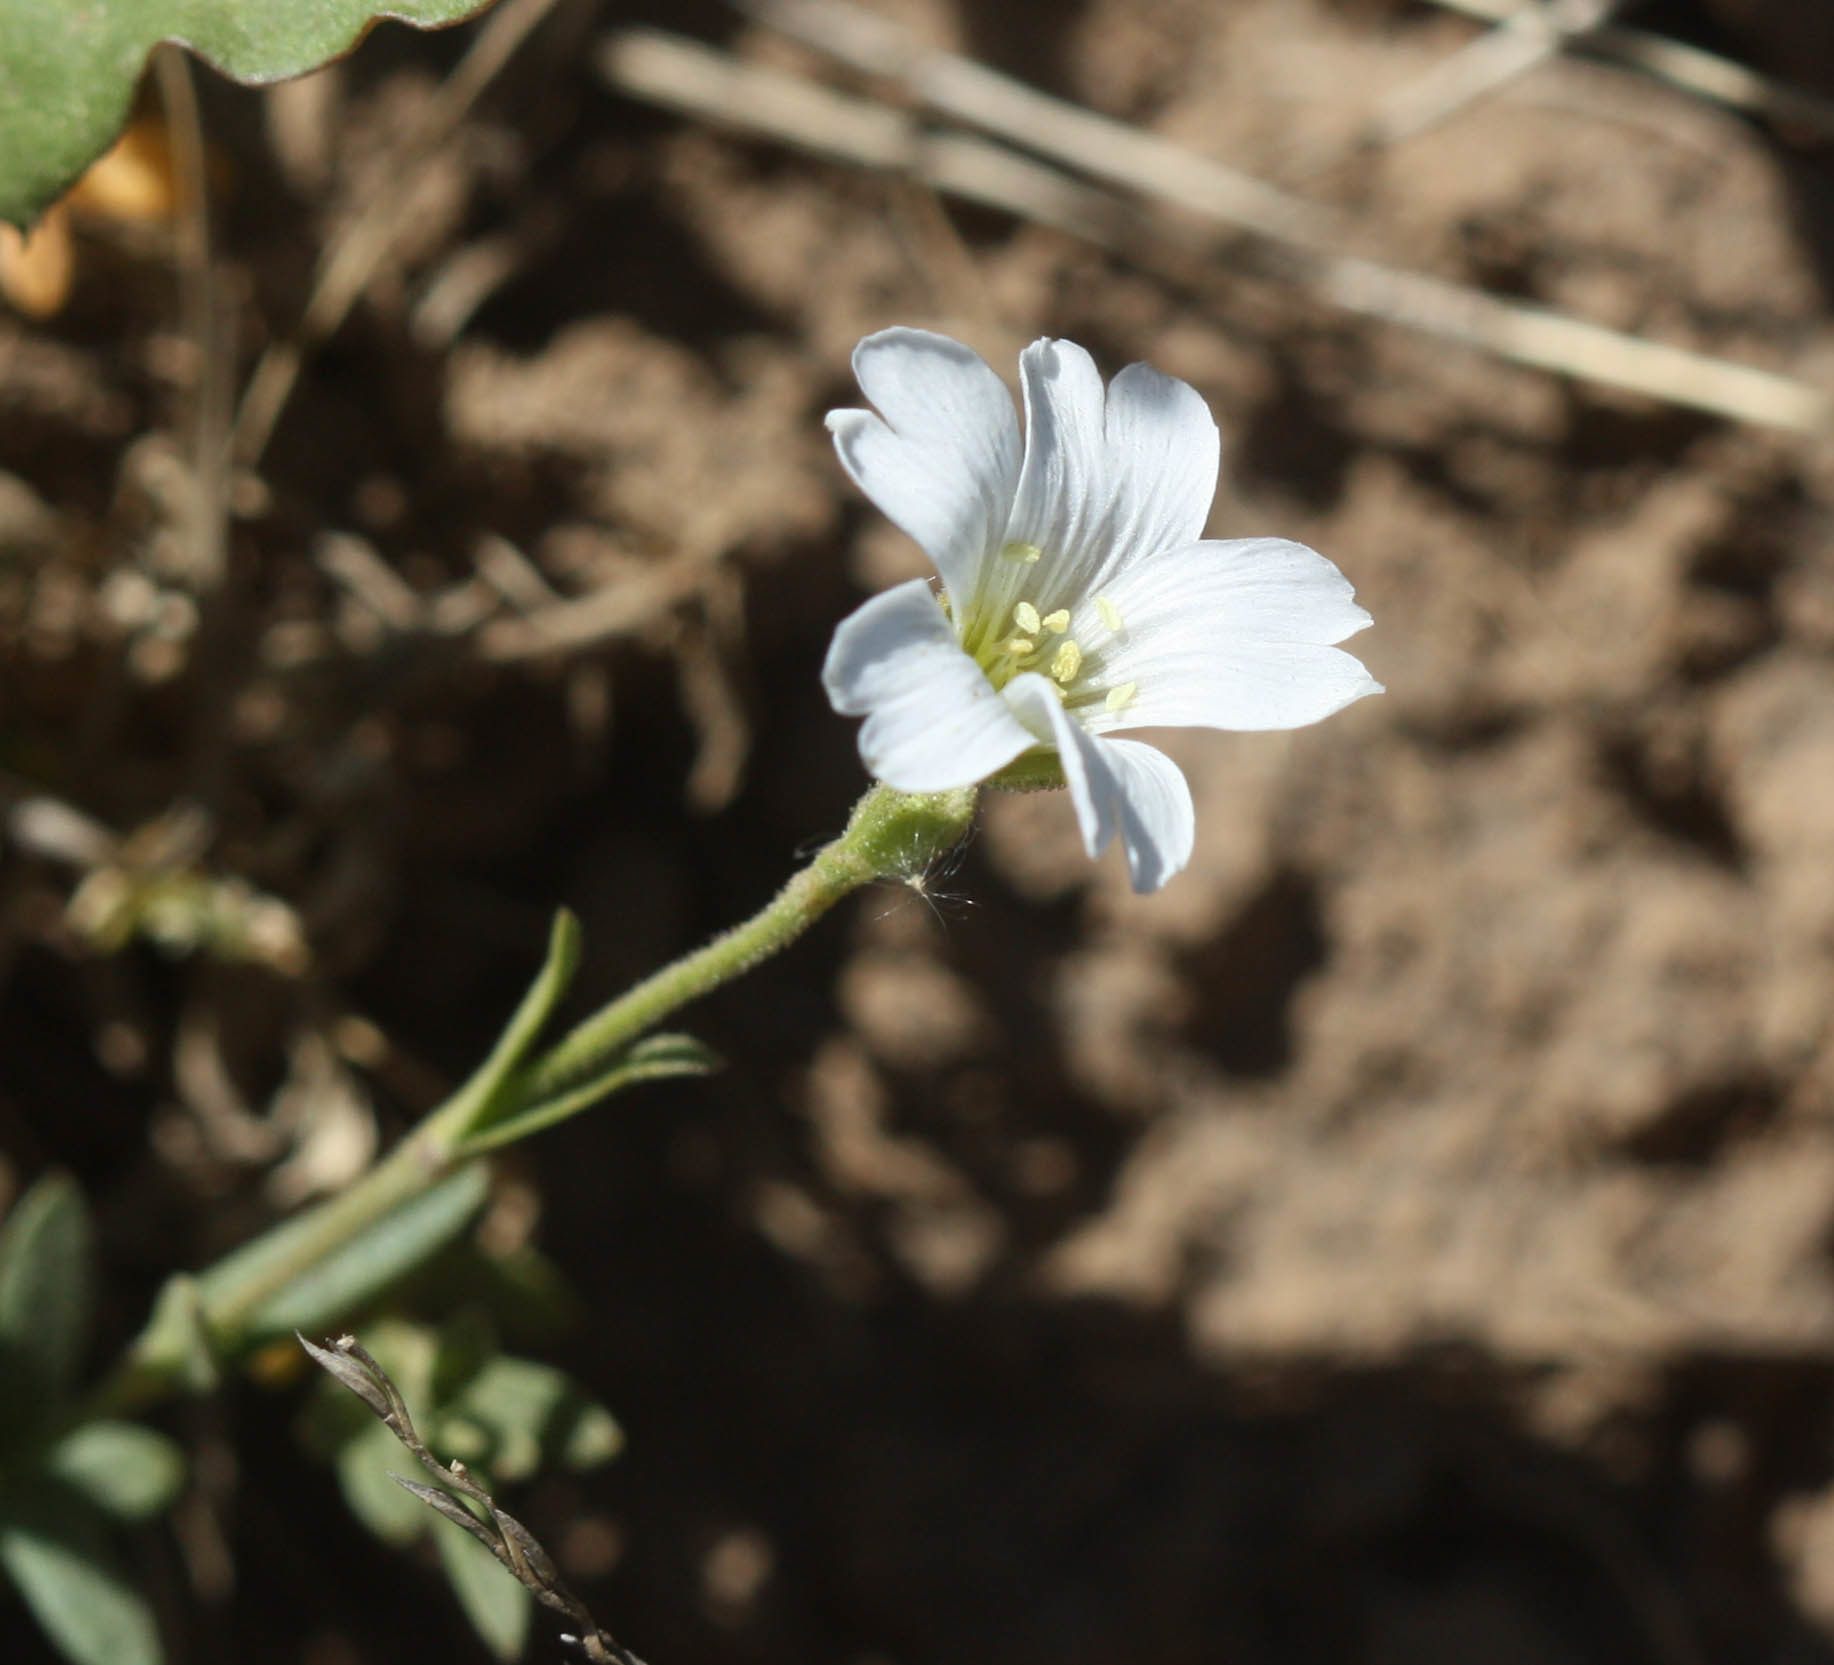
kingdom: Plantae
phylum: Tracheophyta
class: Magnoliopsida
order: Caryophyllales
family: Caryophyllaceae
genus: Cerastium
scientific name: Cerastium beeringianum
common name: Bering mouse-ear chickweed
